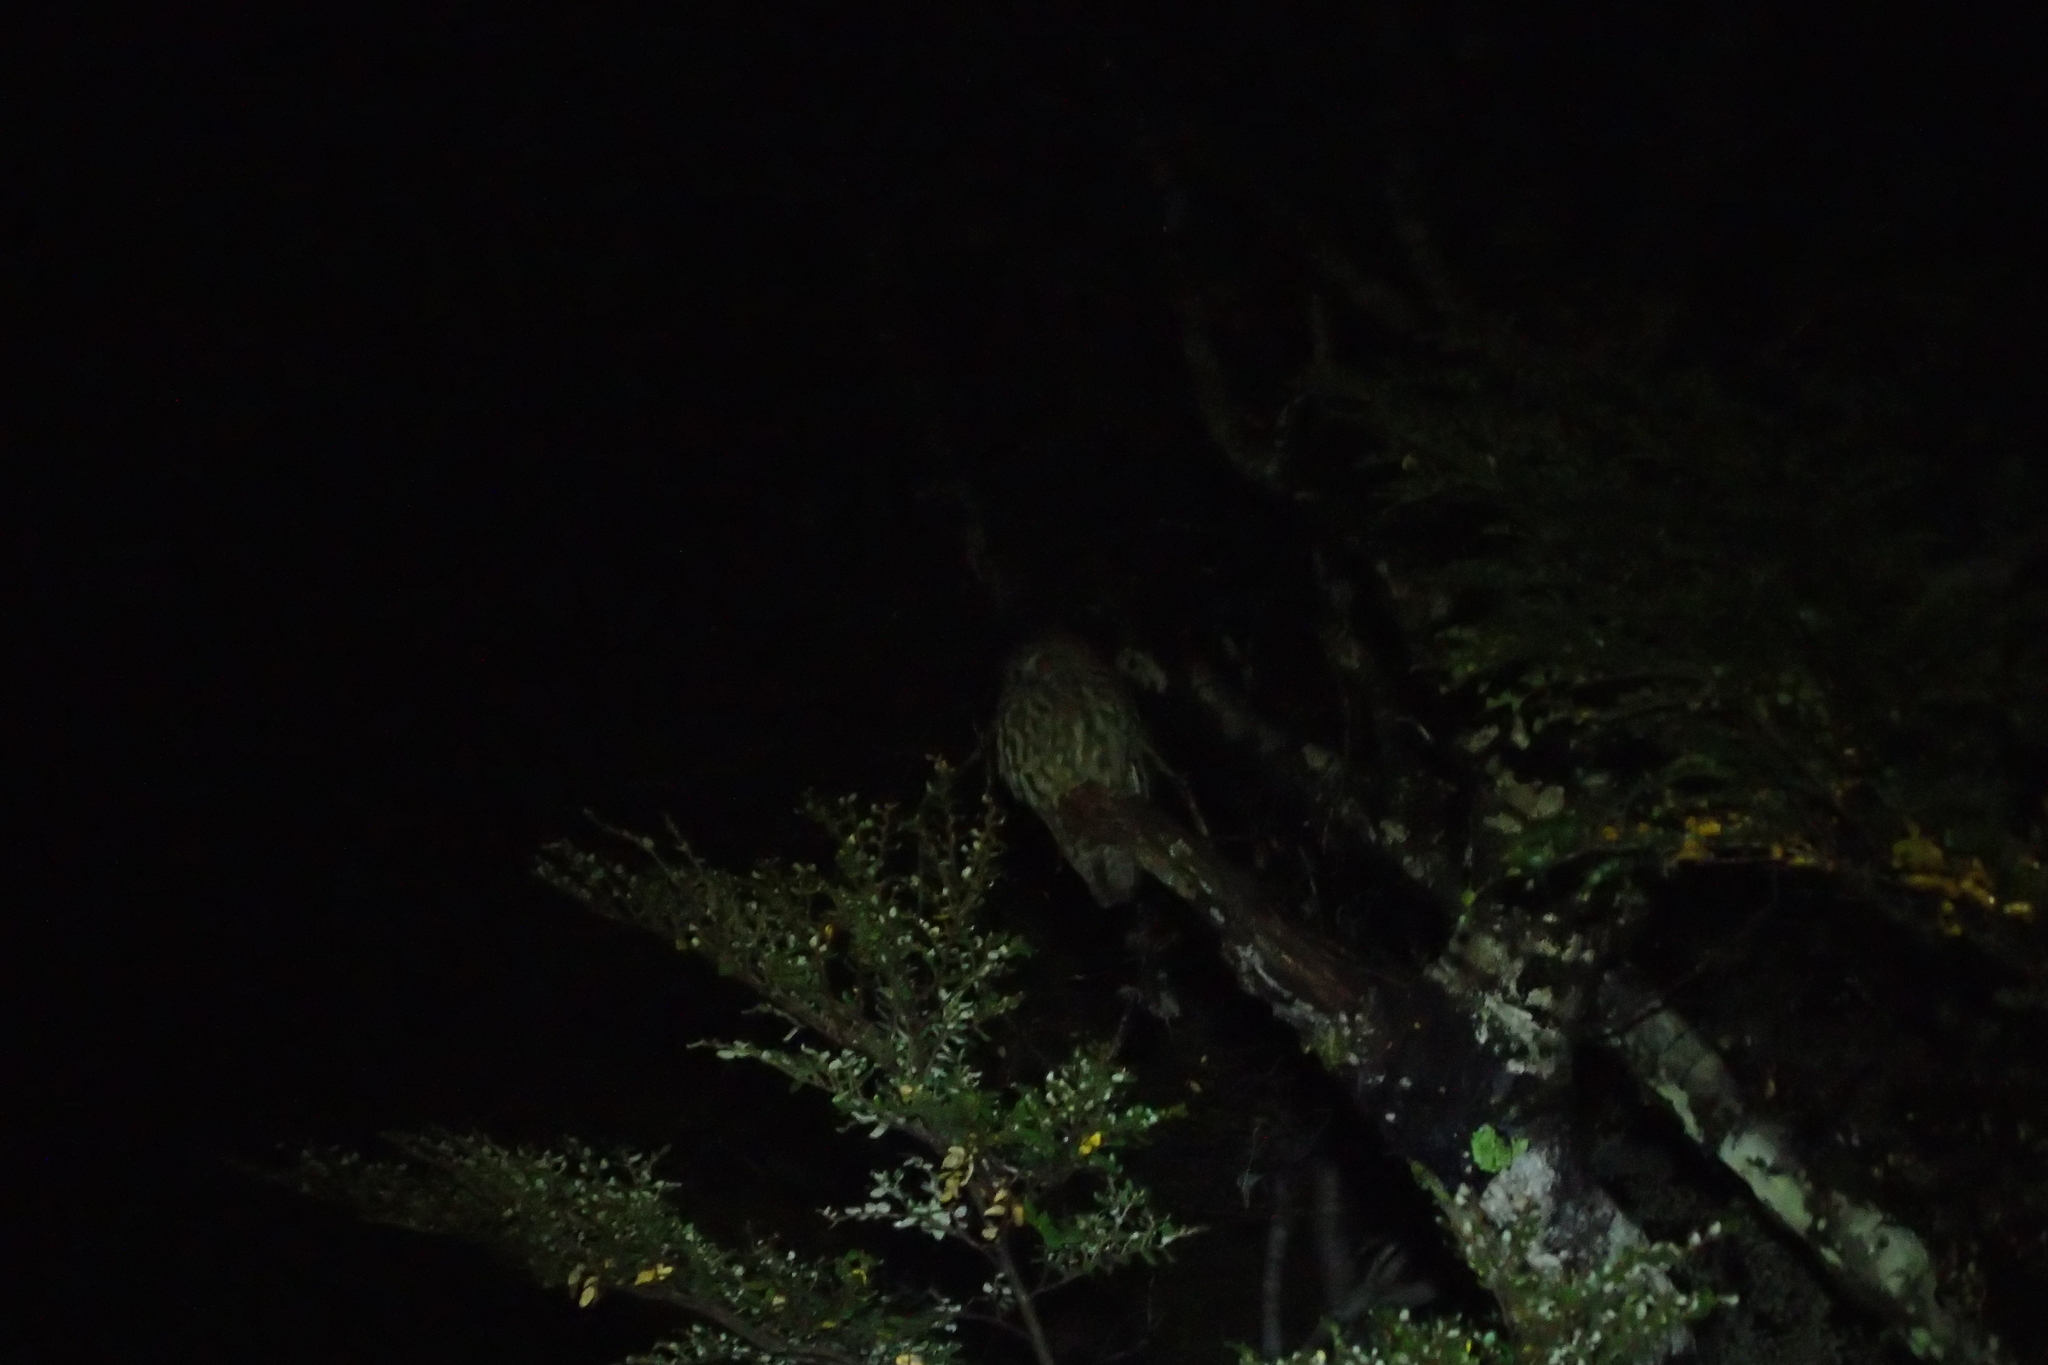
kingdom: Animalia
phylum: Chordata
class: Aves
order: Strigiformes
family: Strigidae
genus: Ninox
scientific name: Ninox novaeseelandiae
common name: Morepork
